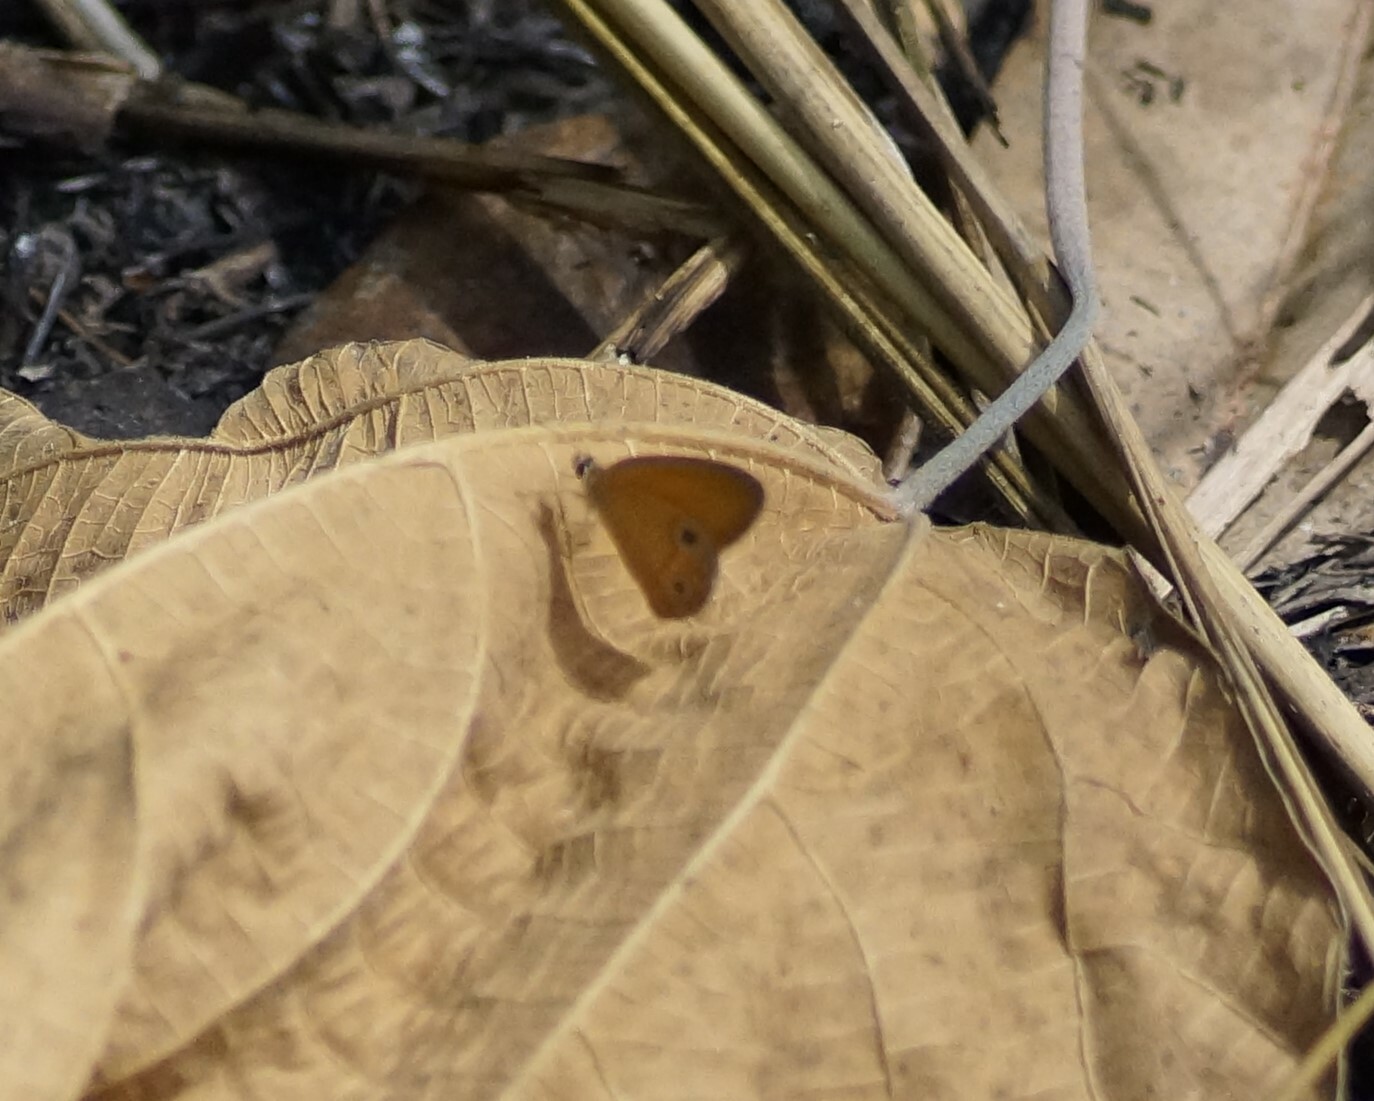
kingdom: Animalia
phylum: Arthropoda
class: Insecta
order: Lepidoptera
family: Nymphalidae
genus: Hypocysta
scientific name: Hypocysta adiante
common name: Orange ringlet
